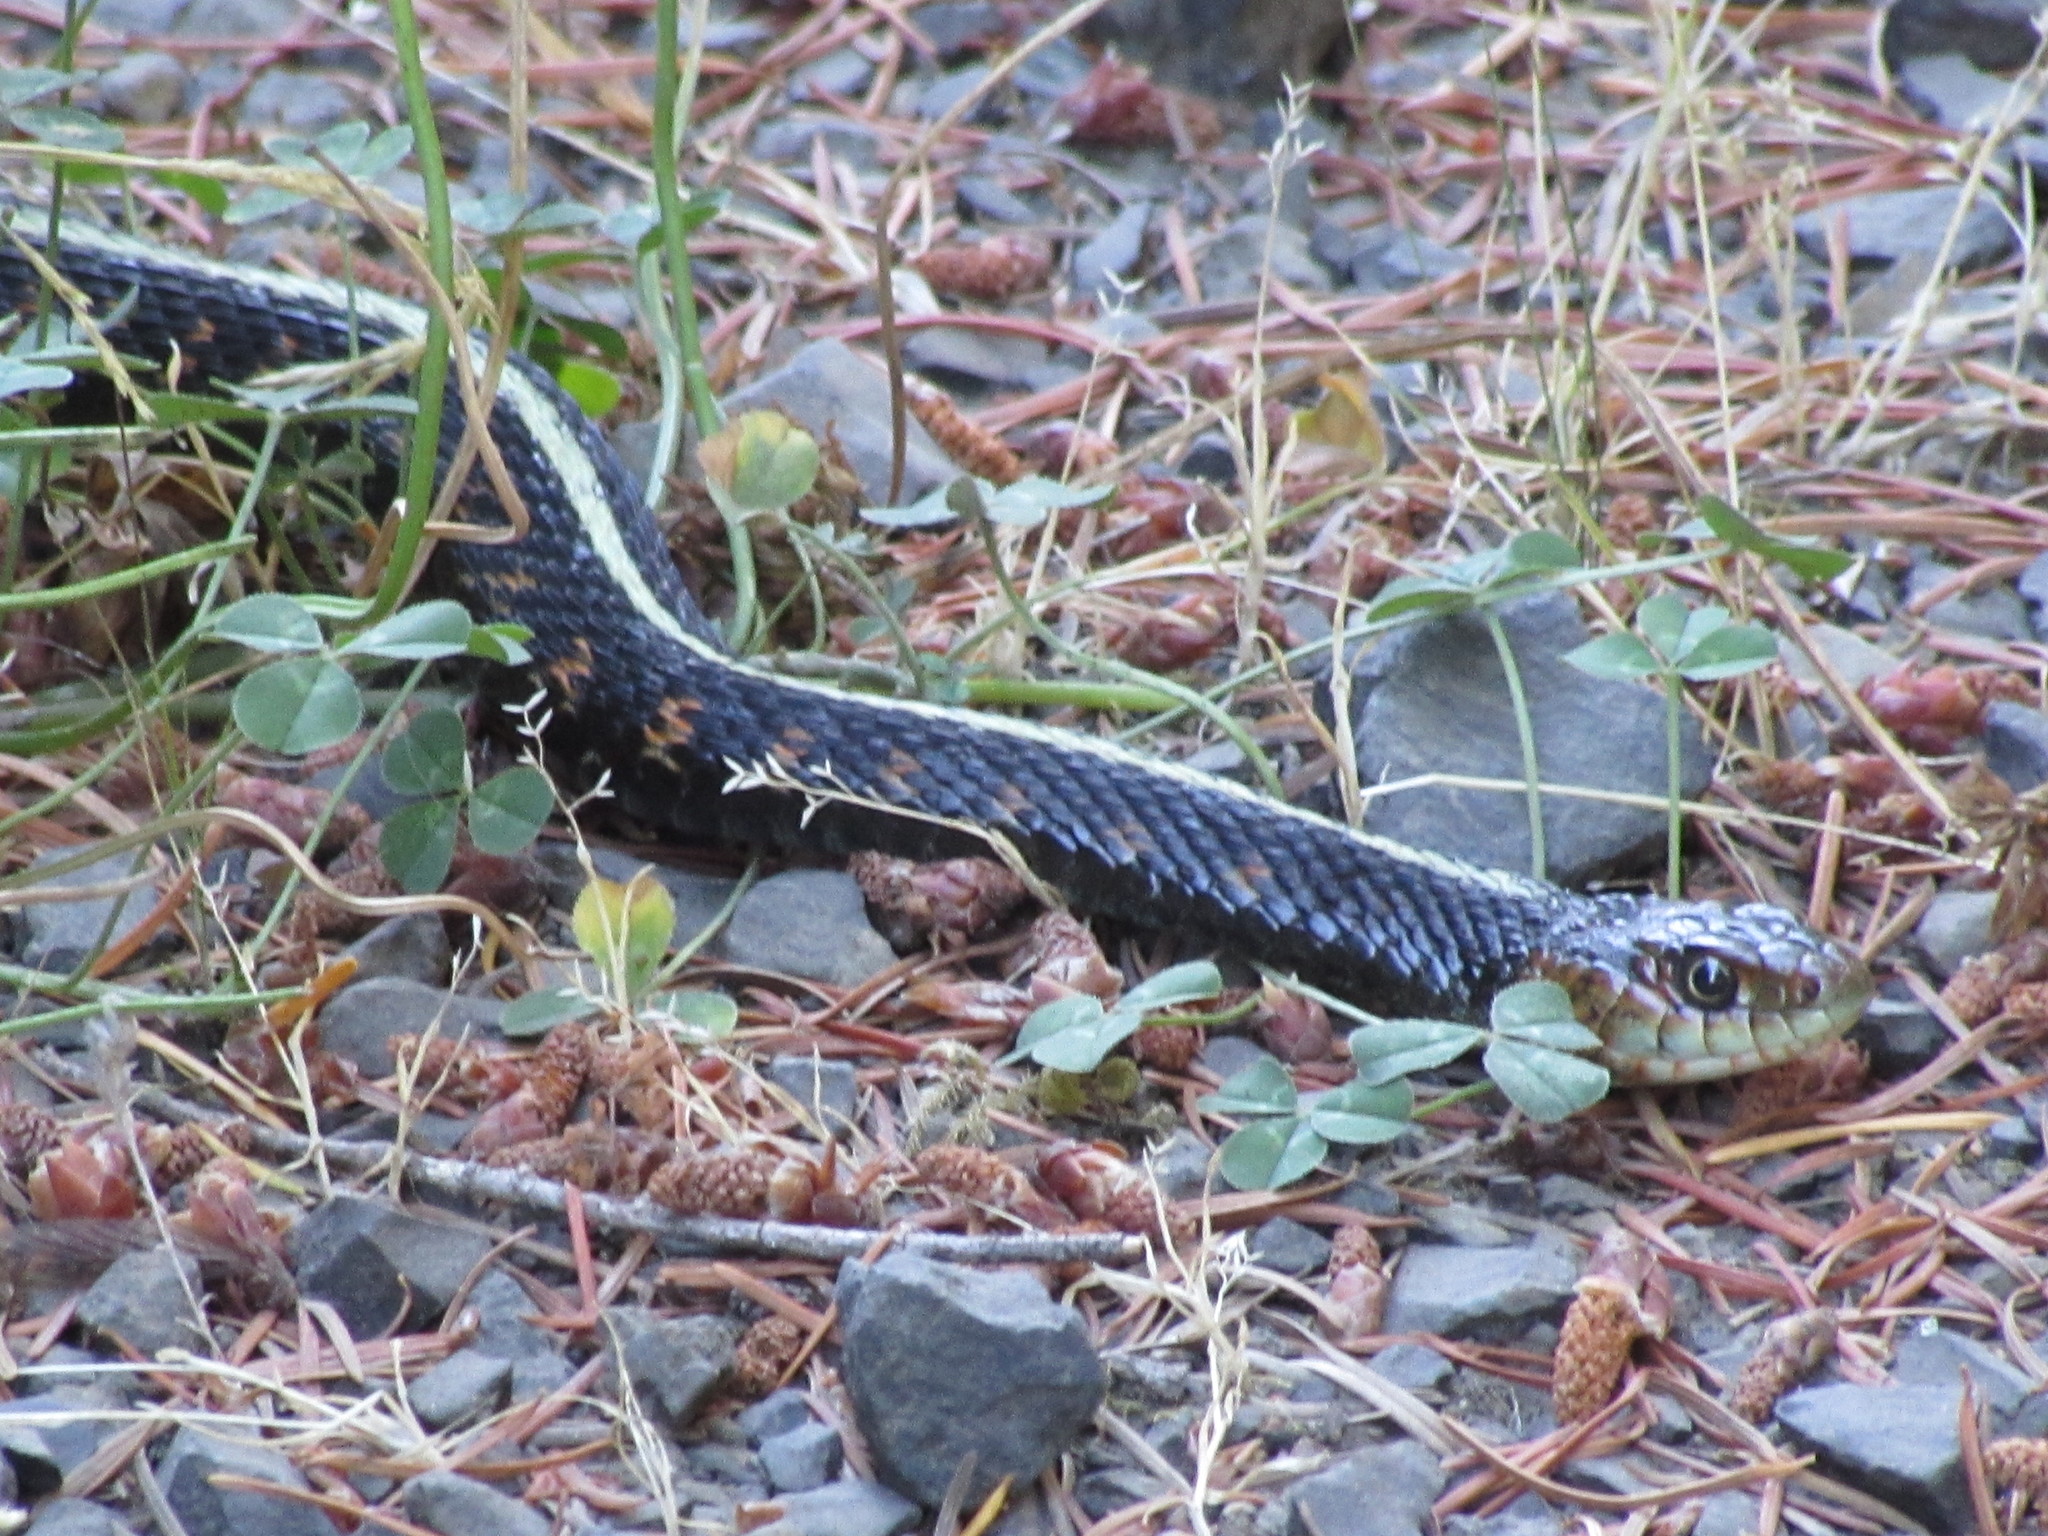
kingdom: Animalia
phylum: Chordata
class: Squamata
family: Colubridae
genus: Thamnophis
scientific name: Thamnophis sirtalis
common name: Common garter snake
